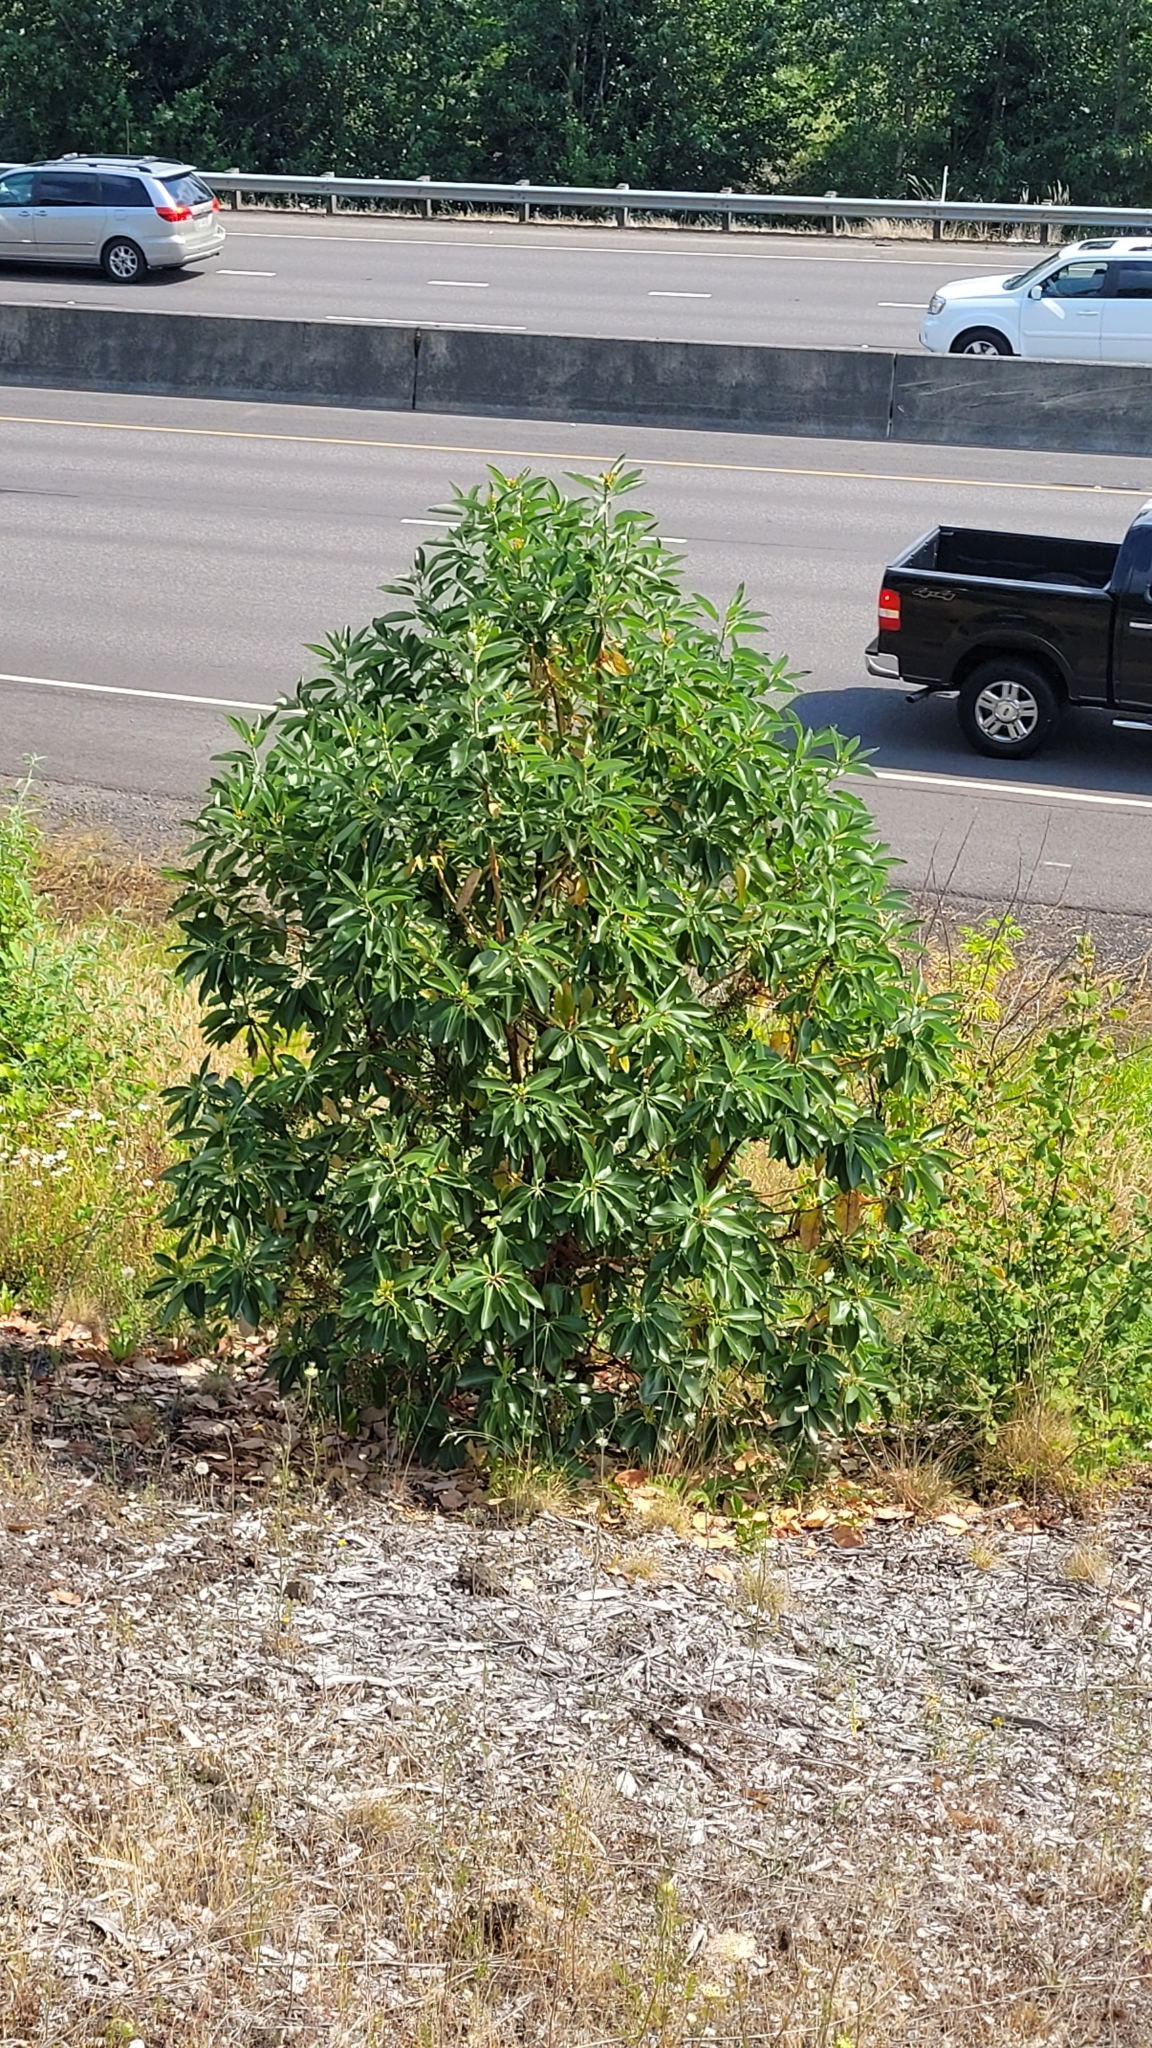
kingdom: Plantae
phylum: Tracheophyta
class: Magnoliopsida
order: Ericales
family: Ericaceae
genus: Arbutus
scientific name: Arbutus menziesii
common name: Pacific madrone
